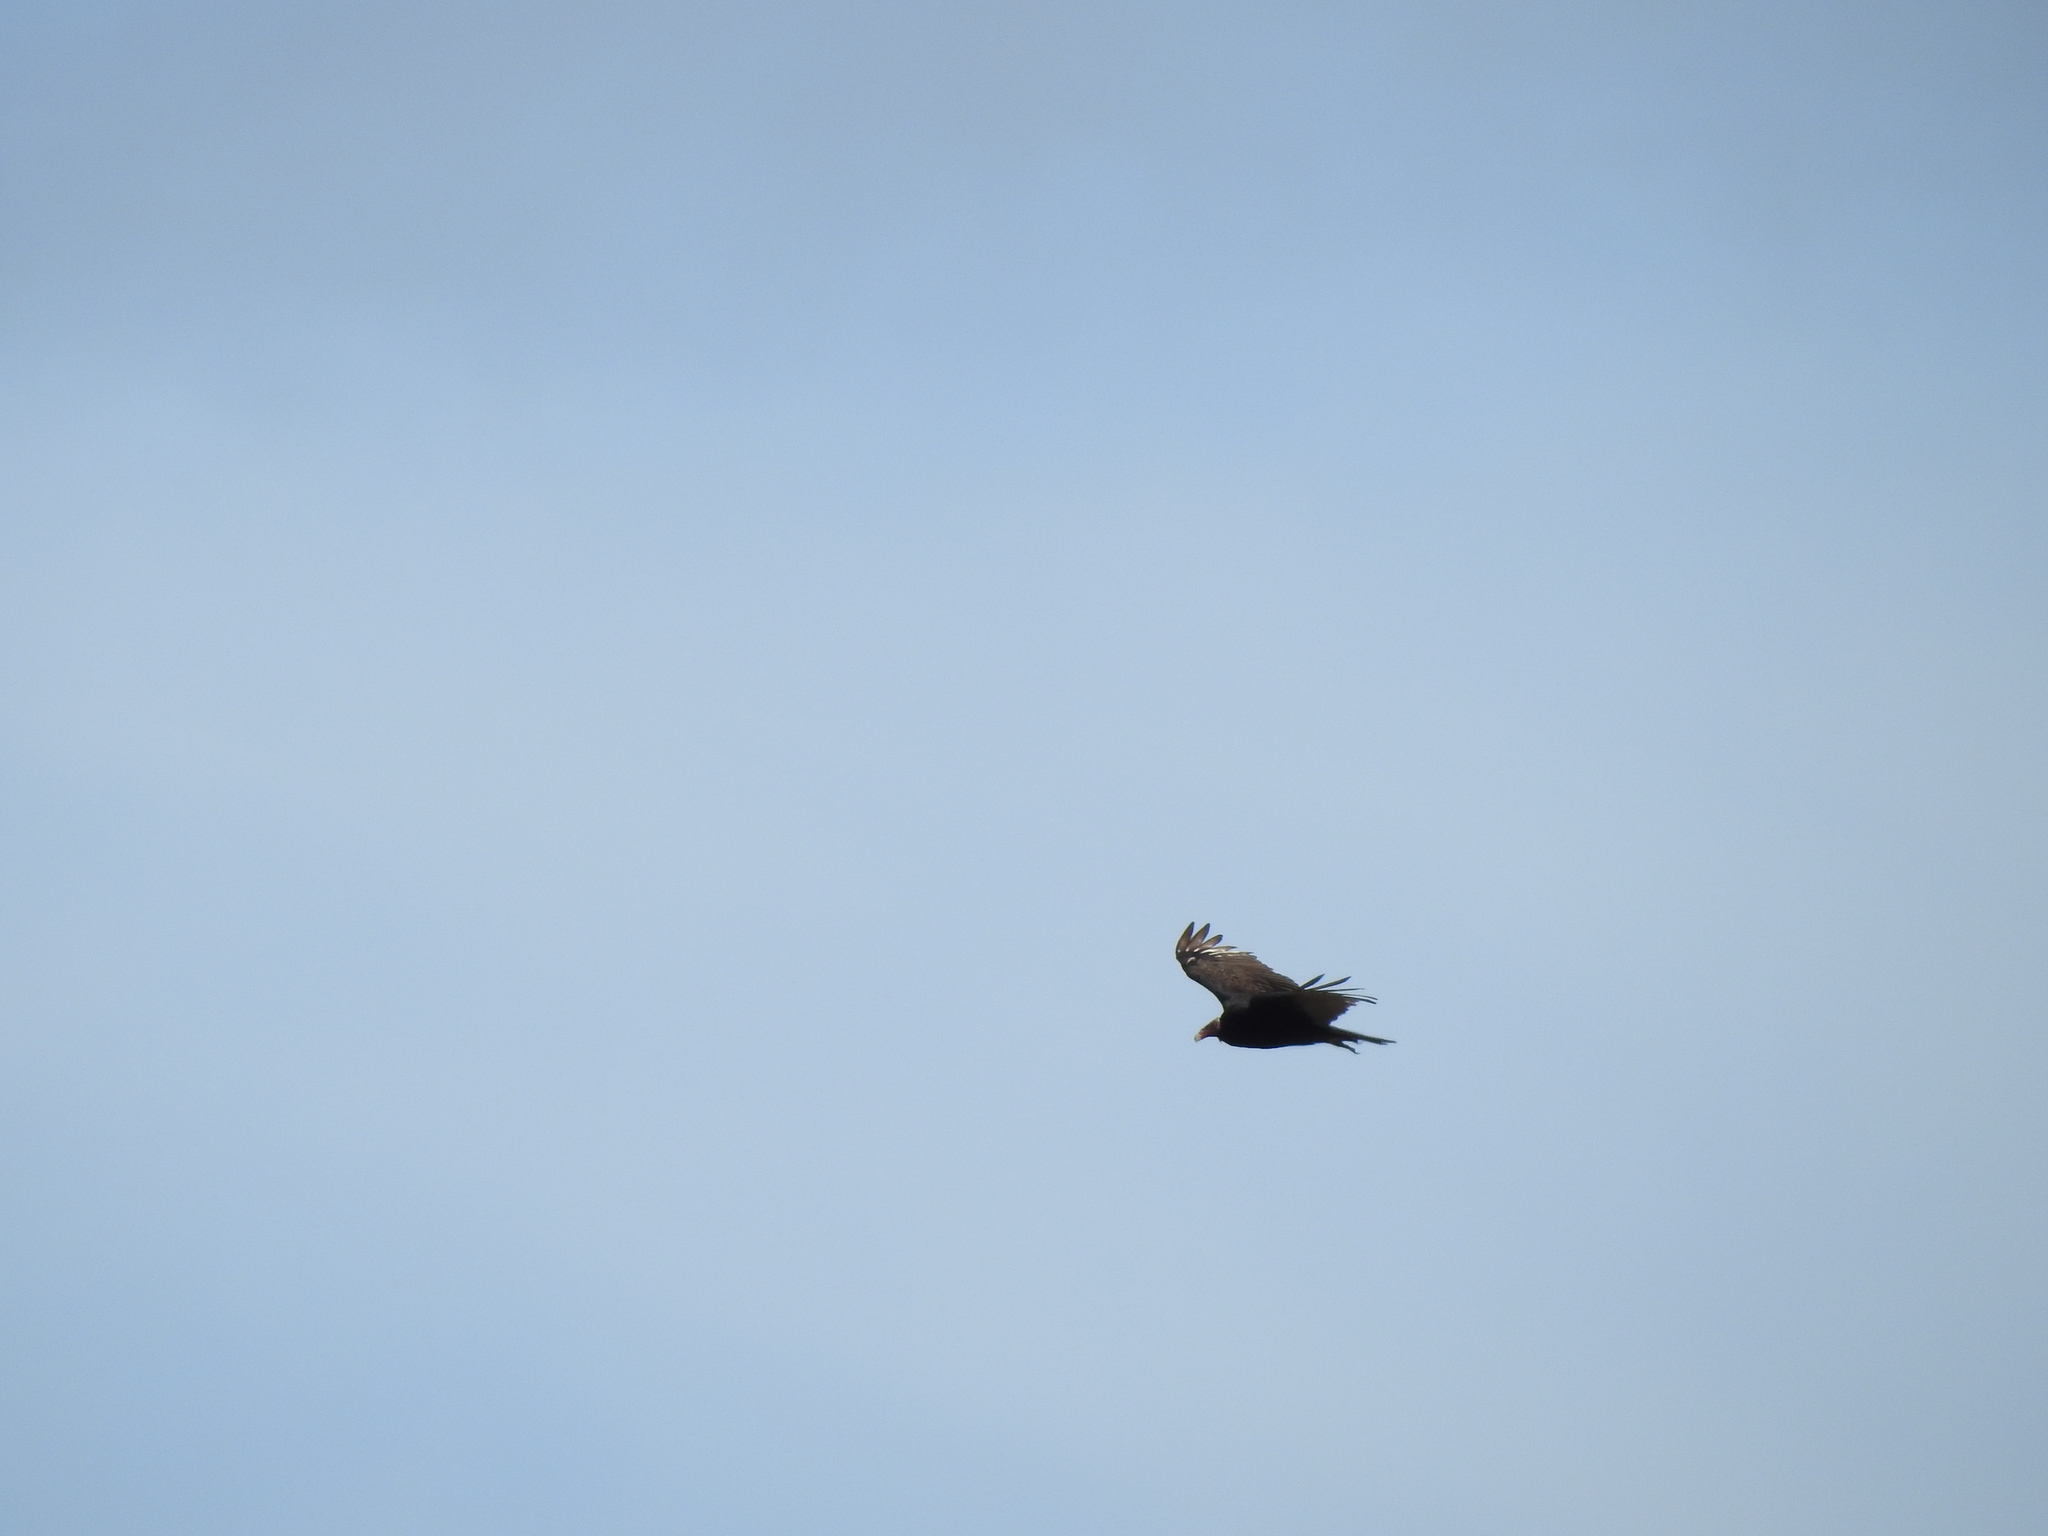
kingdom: Animalia
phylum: Chordata
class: Aves
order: Accipitriformes
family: Cathartidae
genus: Cathartes
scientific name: Cathartes aura
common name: Turkey vulture
